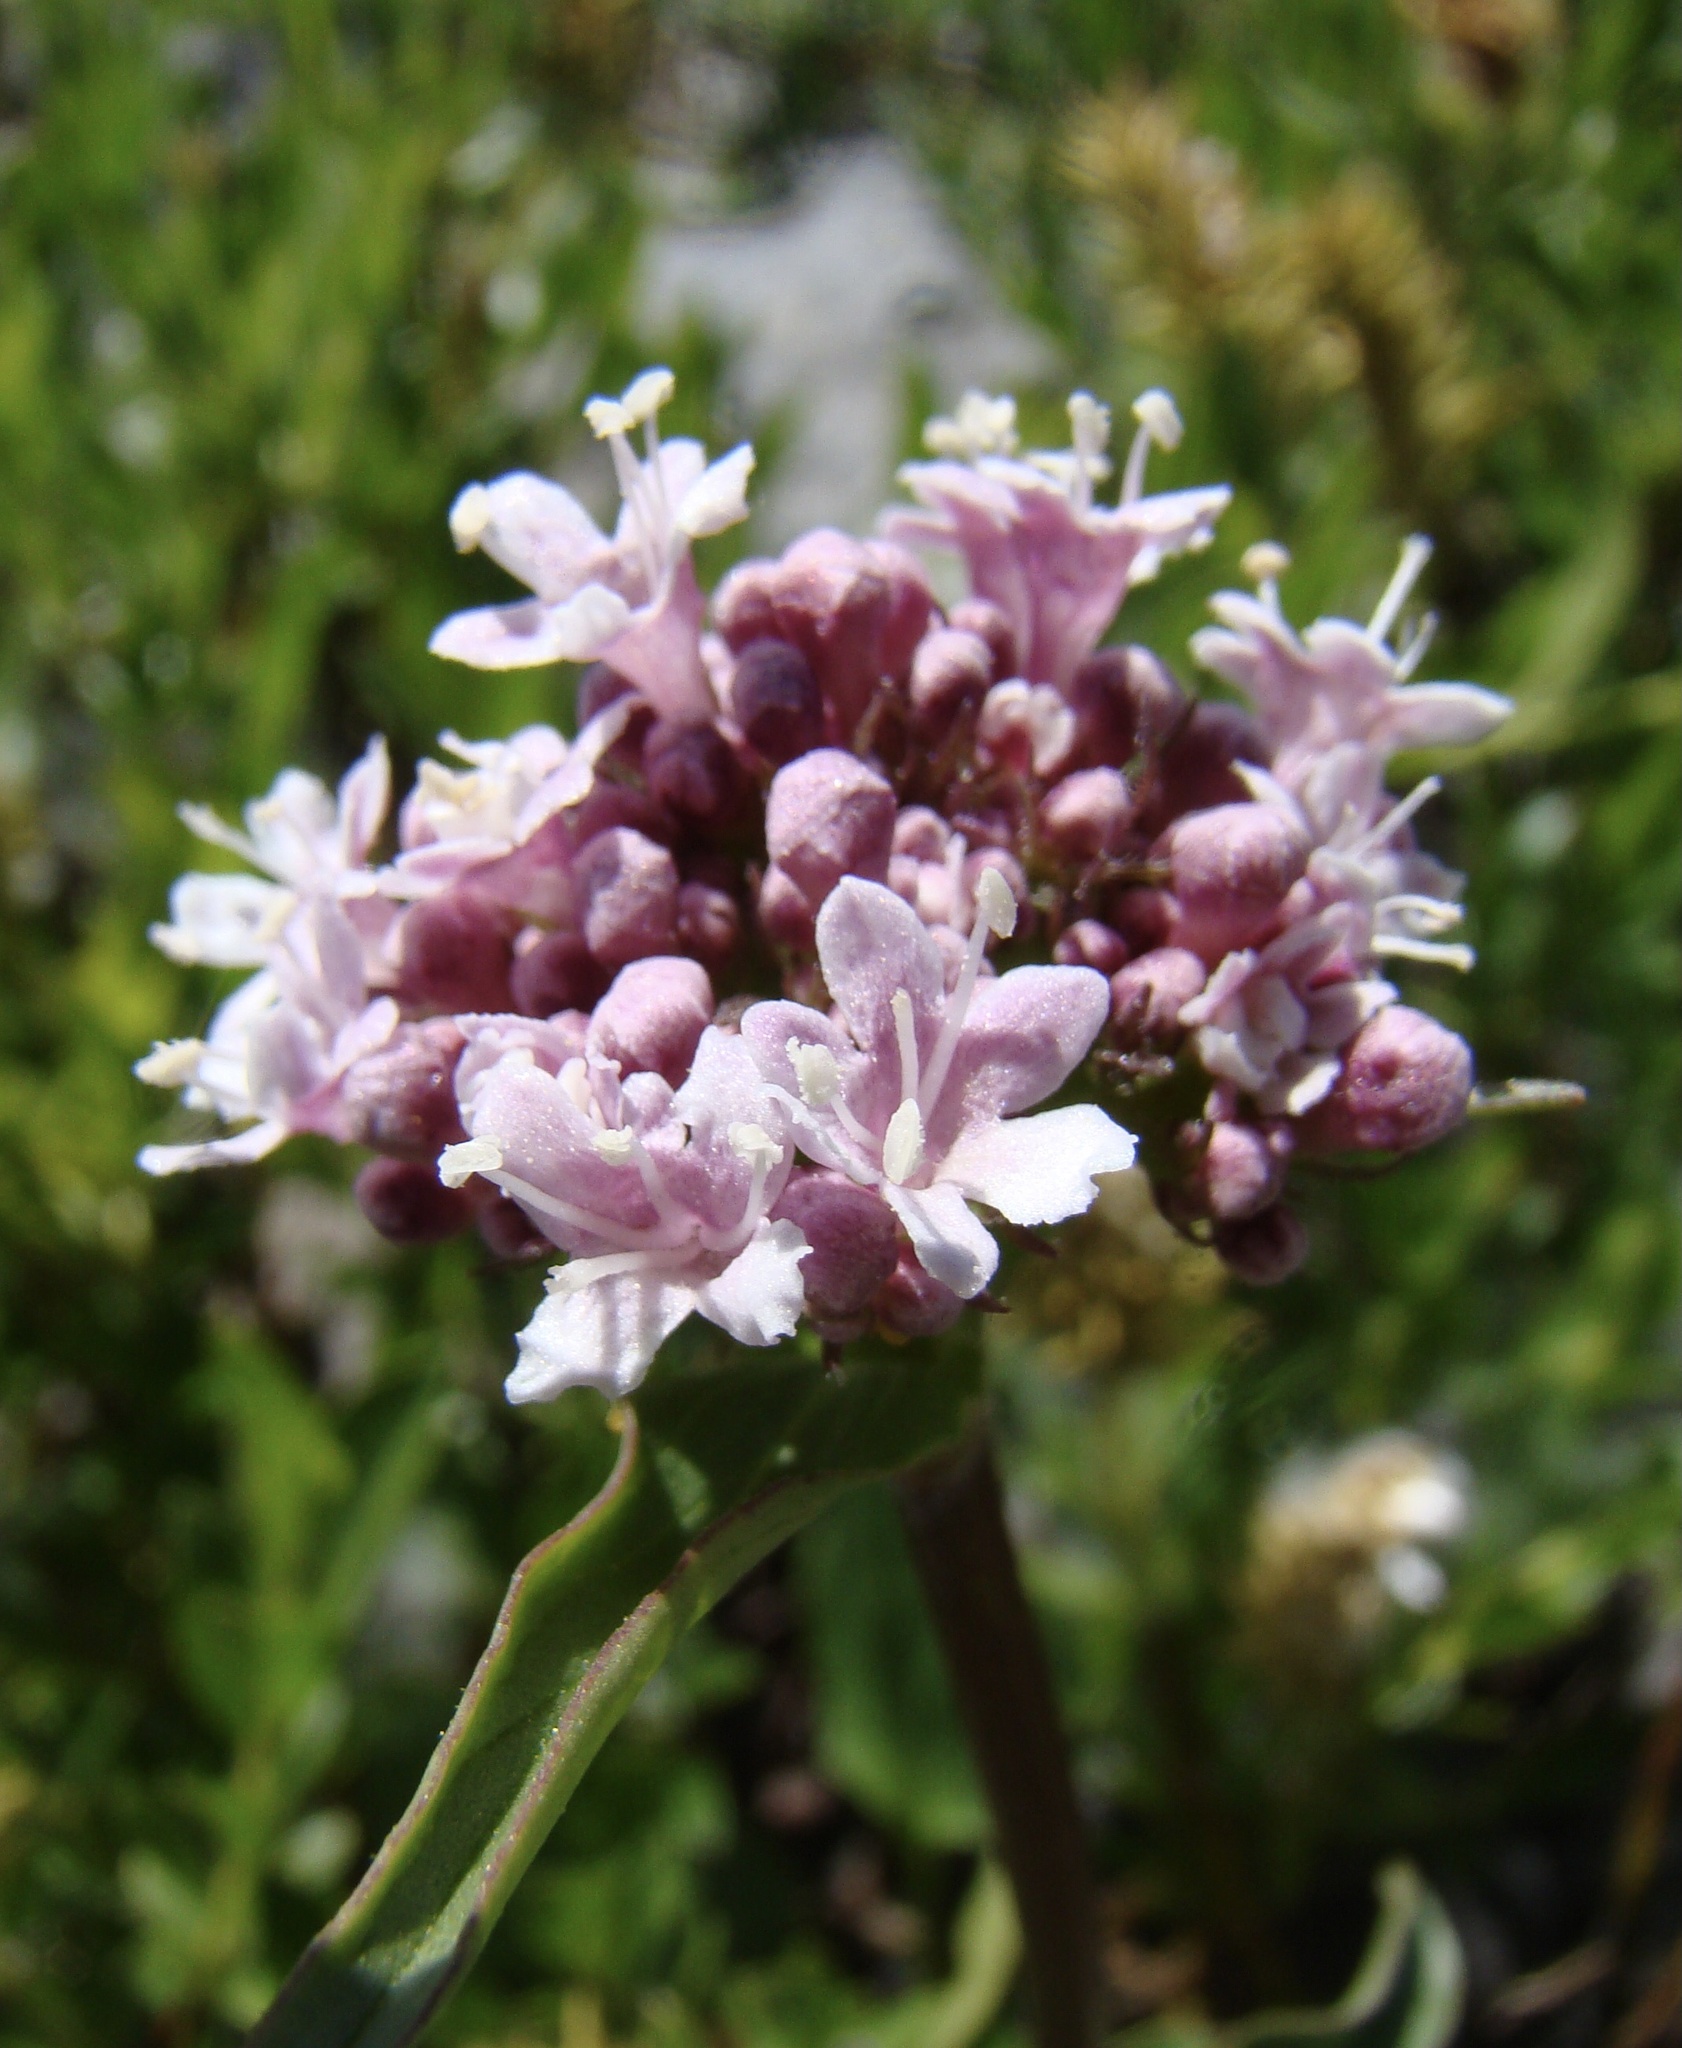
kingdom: Plantae
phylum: Tracheophyta
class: Magnoliopsida
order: Dipsacales
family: Caprifoliaceae
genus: Valeriana
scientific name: Valeriana montana
